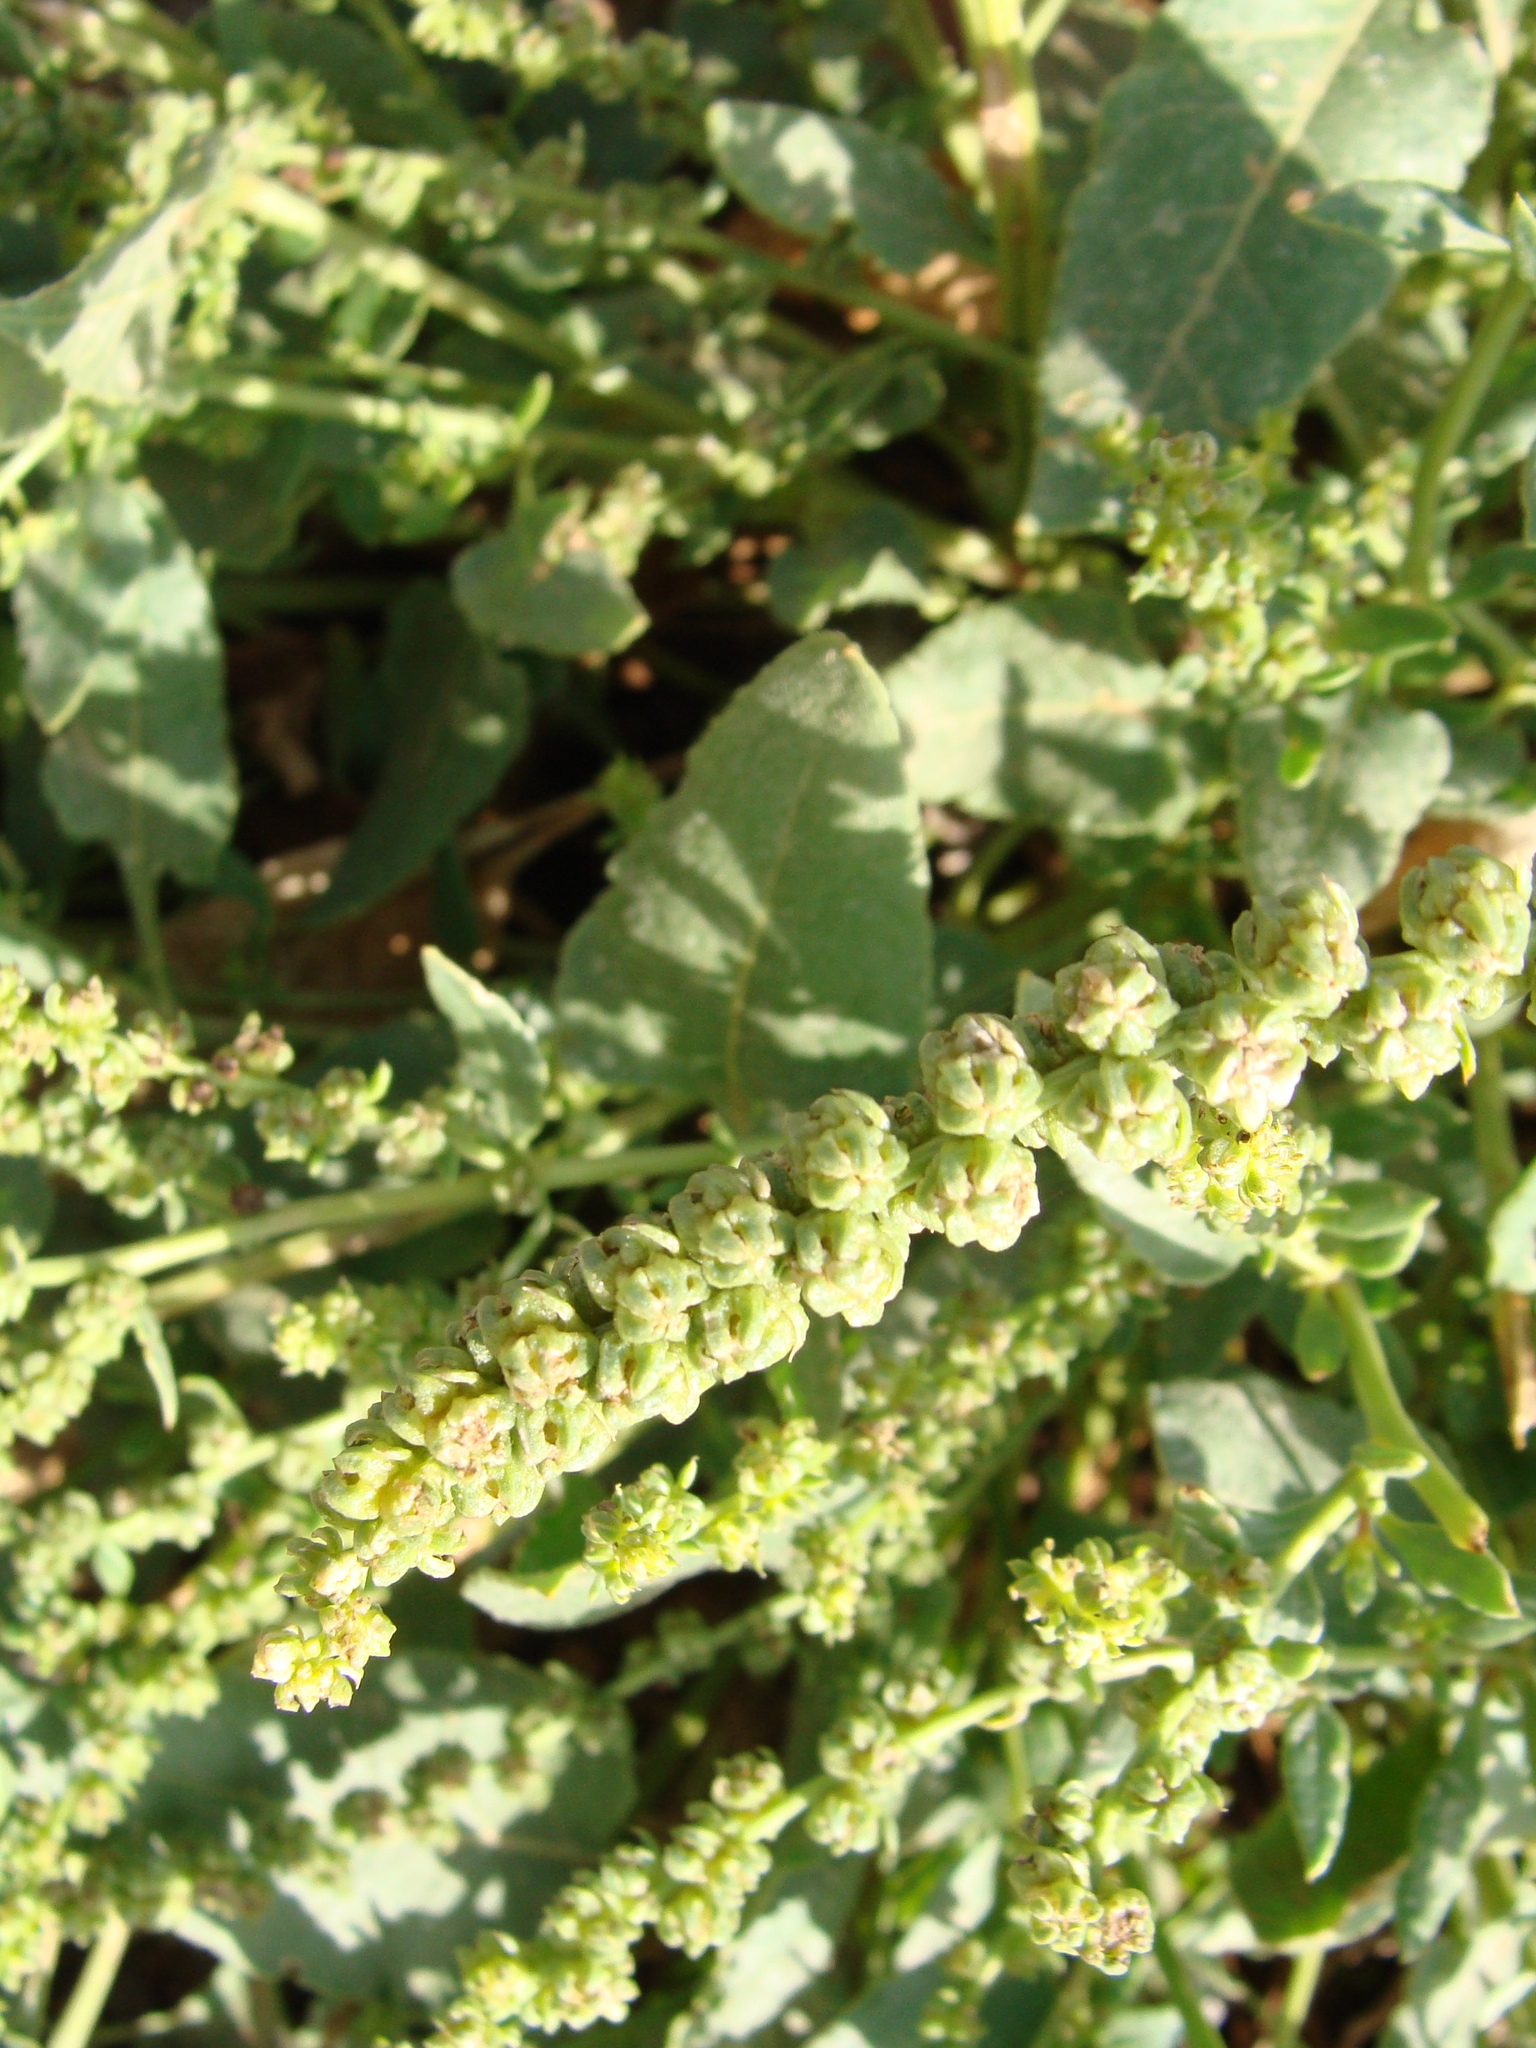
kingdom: Plantae
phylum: Tracheophyta
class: Magnoliopsida
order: Caryophyllales
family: Amaranthaceae
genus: Beta
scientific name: Beta vulgaris
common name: Beet
